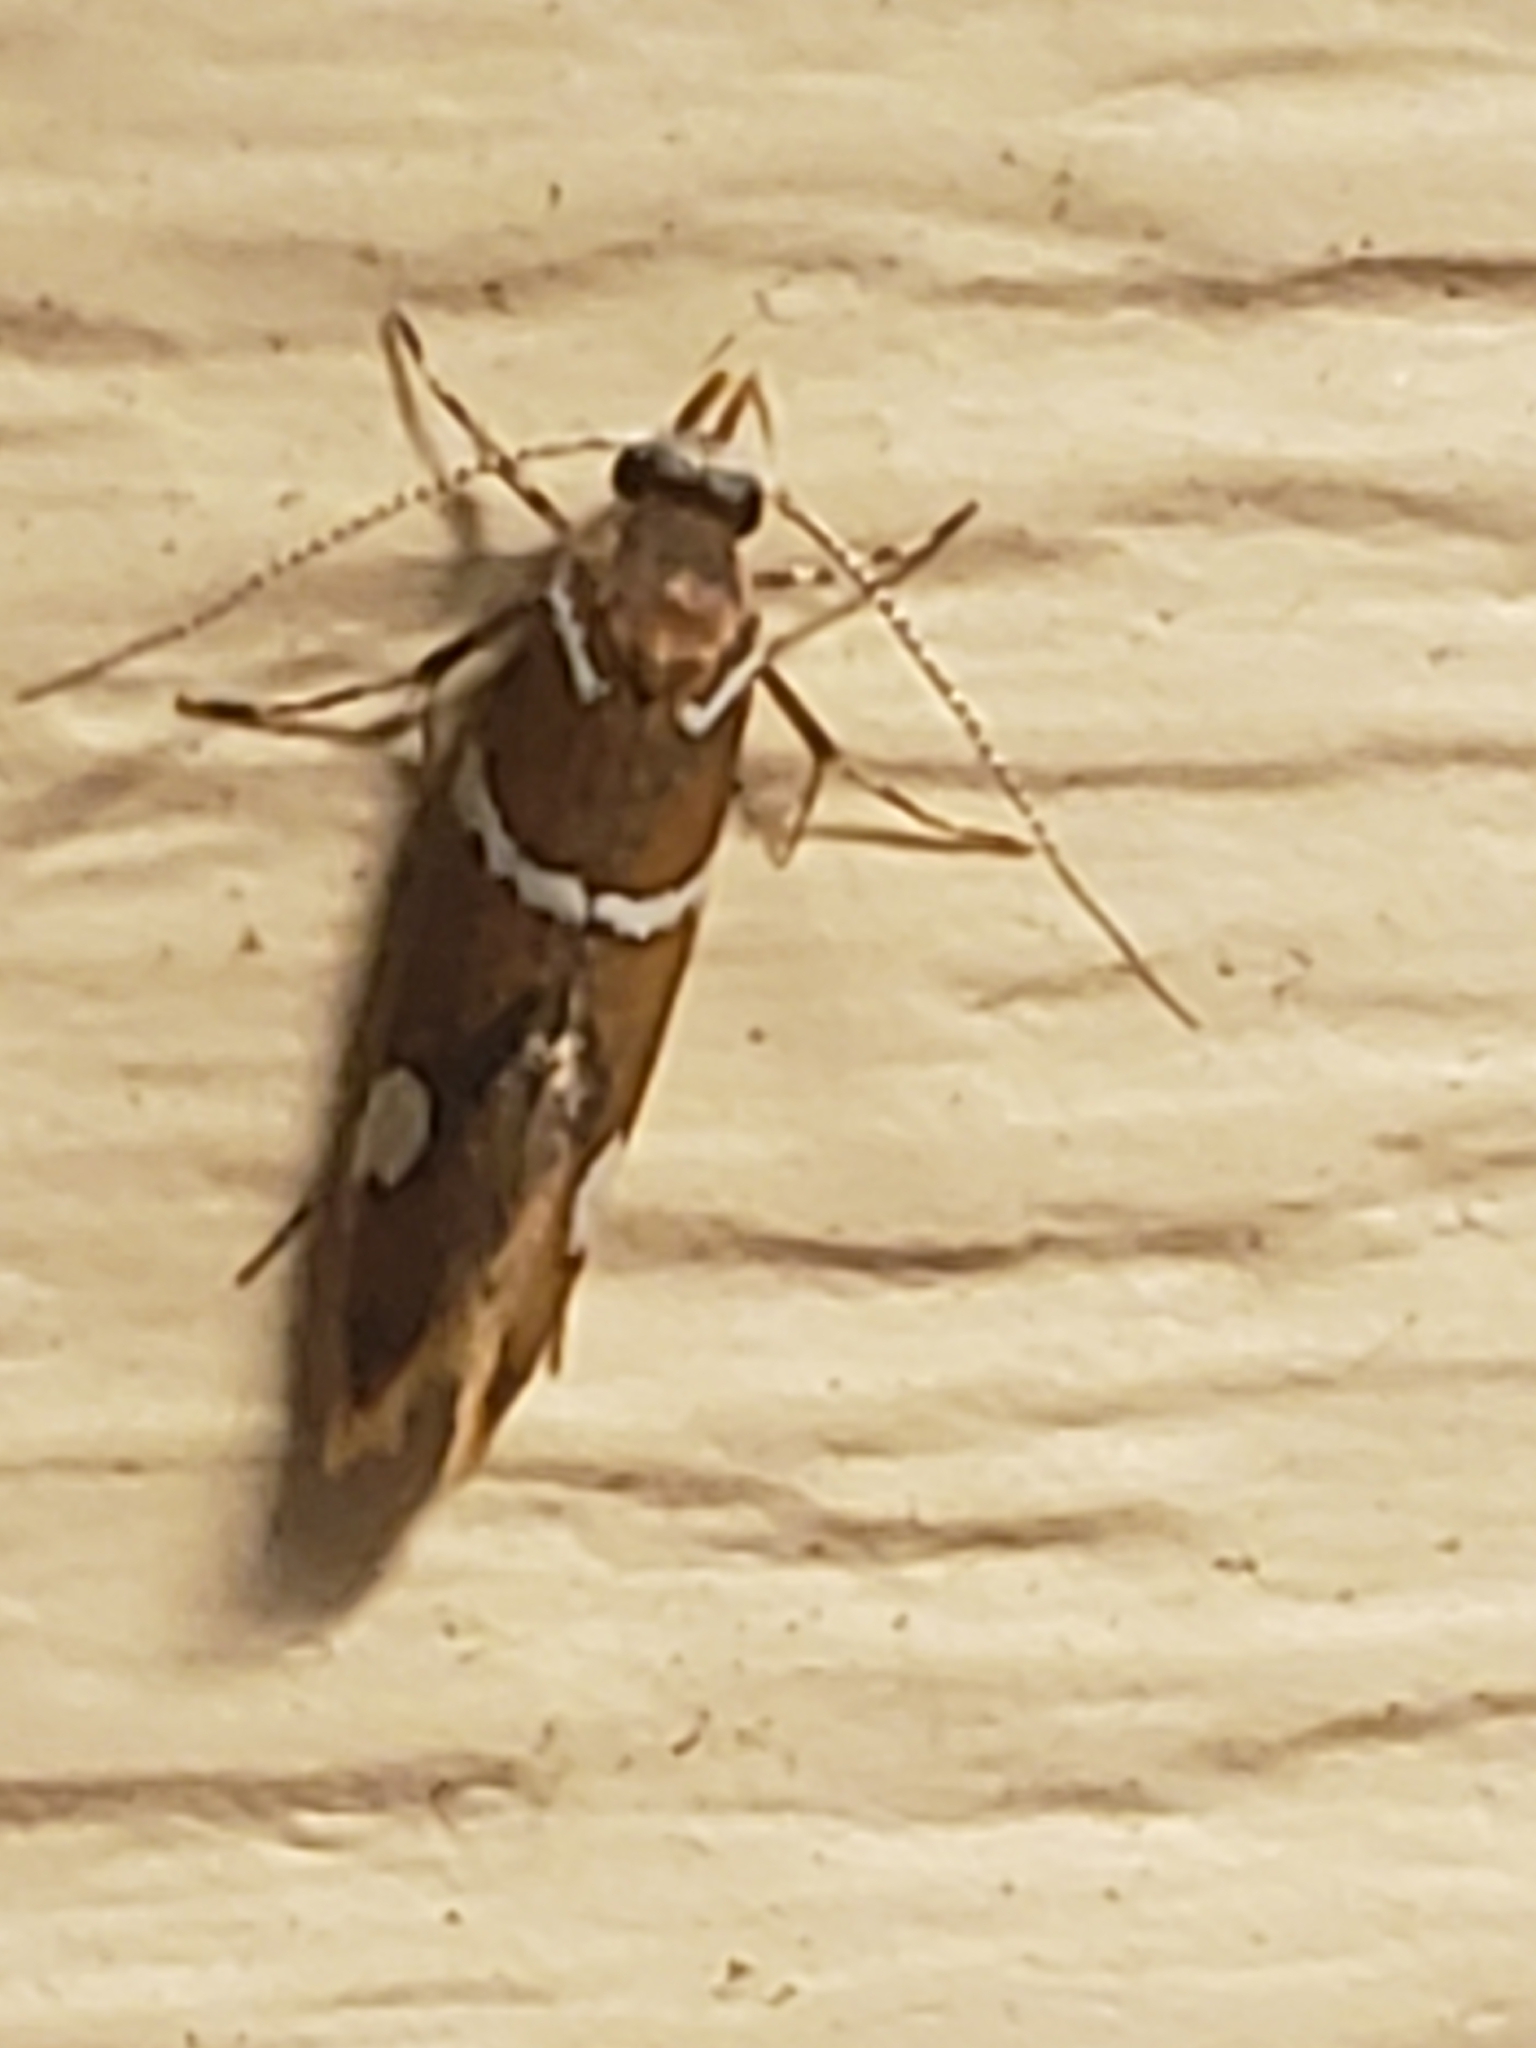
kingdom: Animalia
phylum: Arthropoda
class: Insecta
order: Lepidoptera
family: Oecophoridae
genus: Promalactis
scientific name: Promalactis suzukiella
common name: Moth
